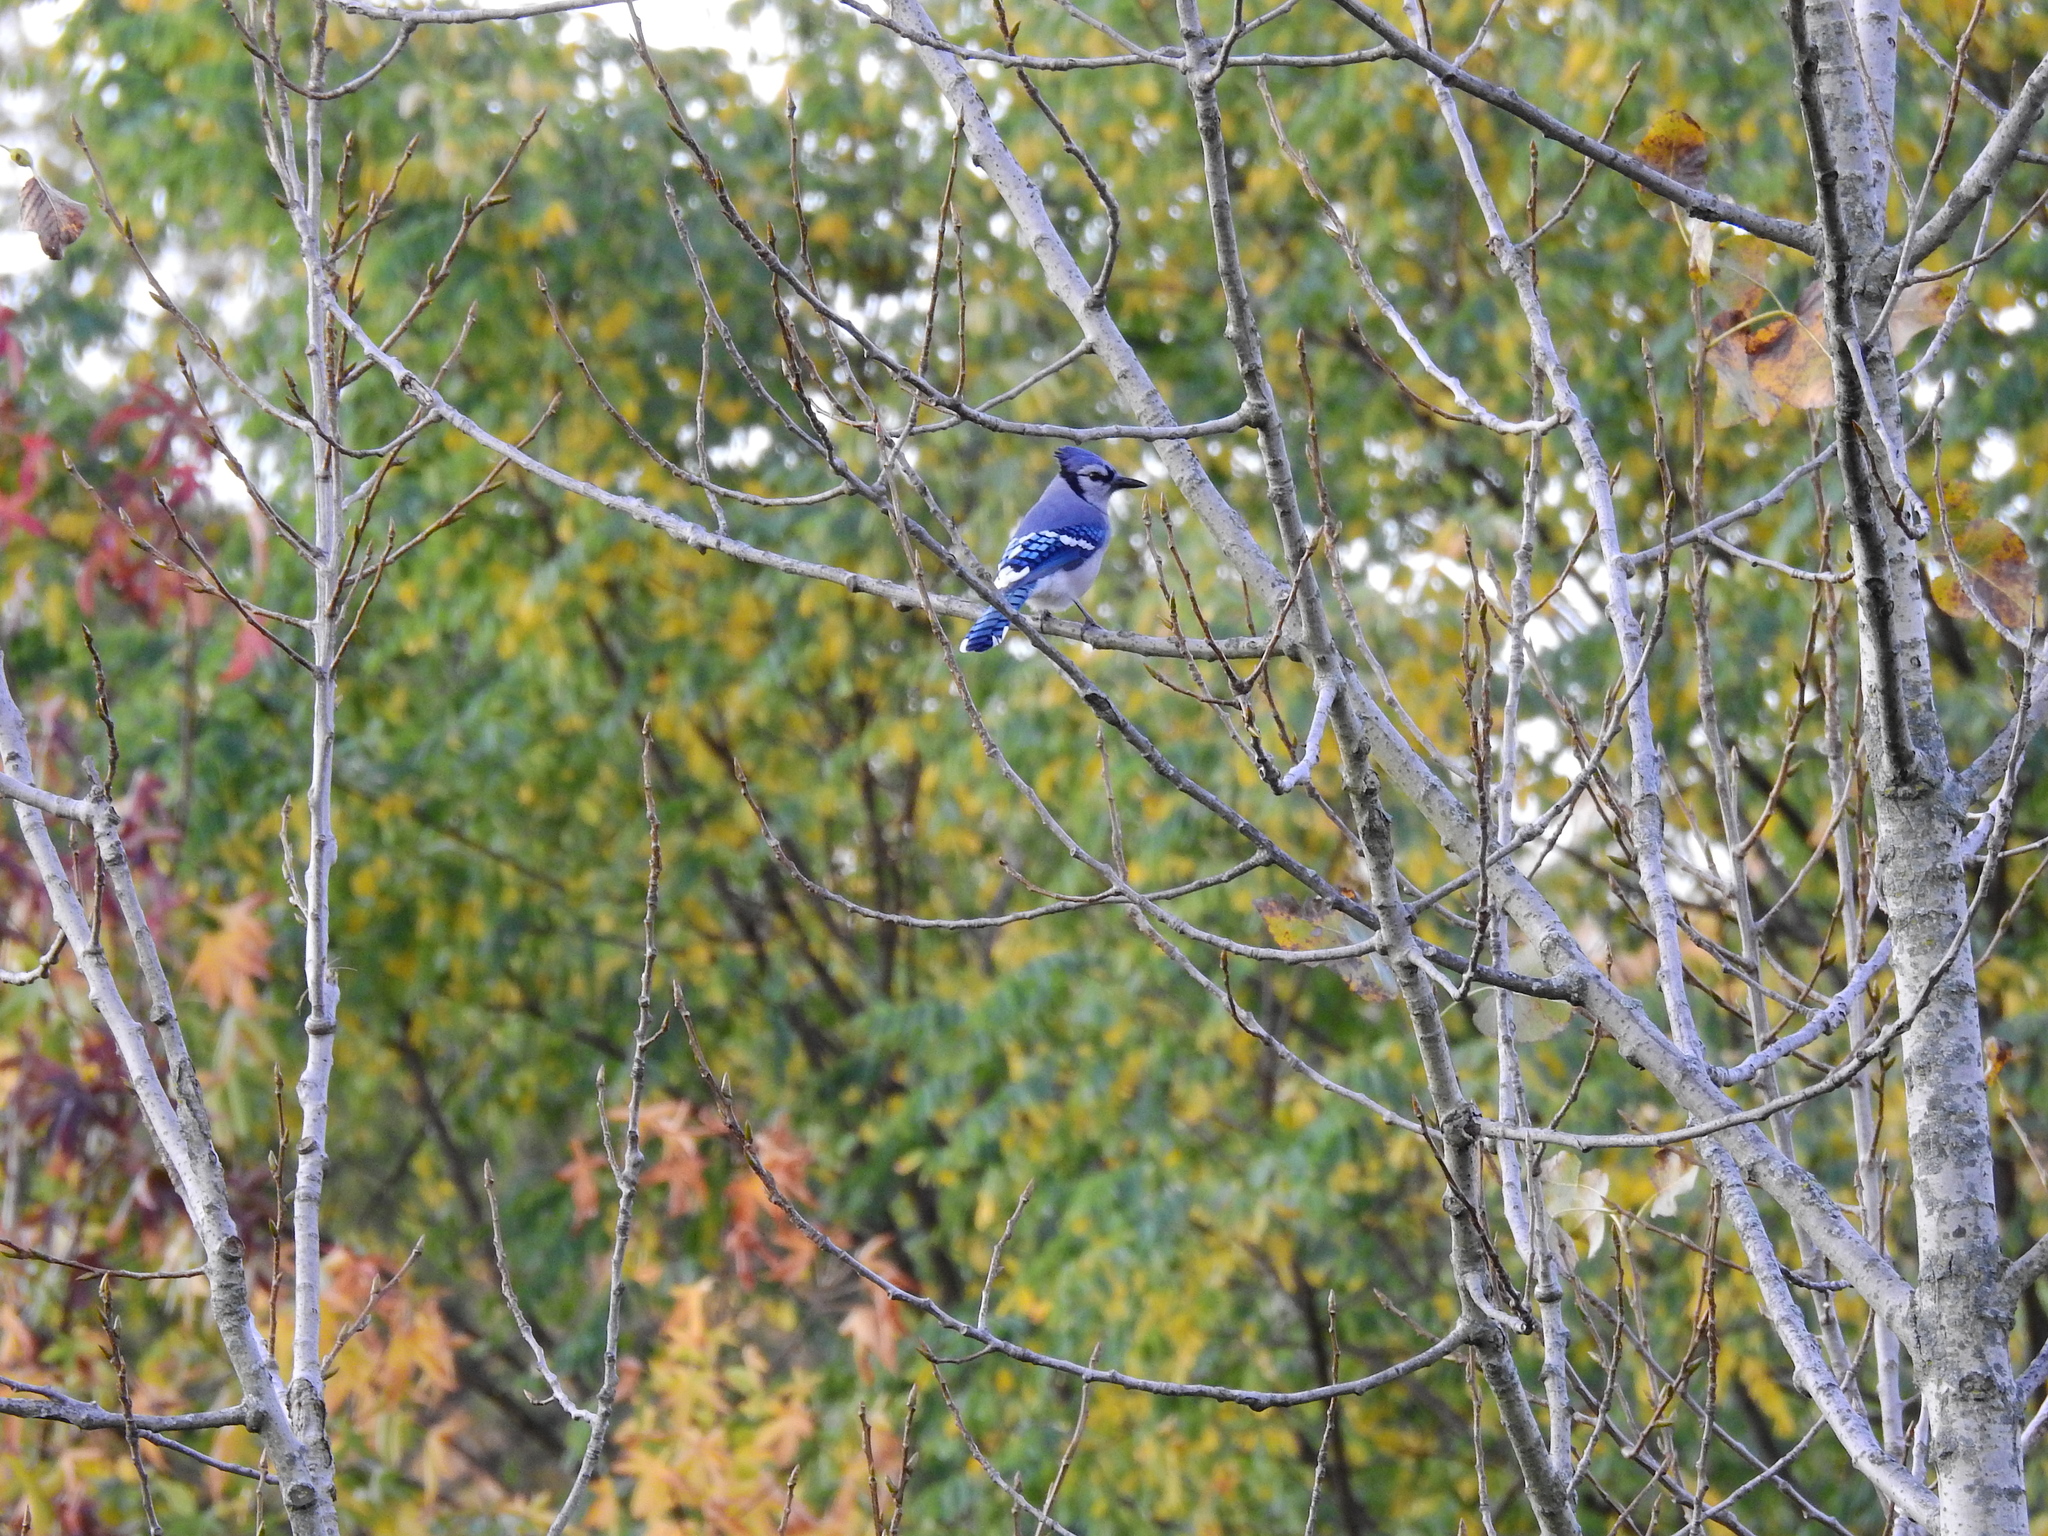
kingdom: Animalia
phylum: Chordata
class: Aves
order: Passeriformes
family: Corvidae
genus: Cyanocitta
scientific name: Cyanocitta cristata
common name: Blue jay
